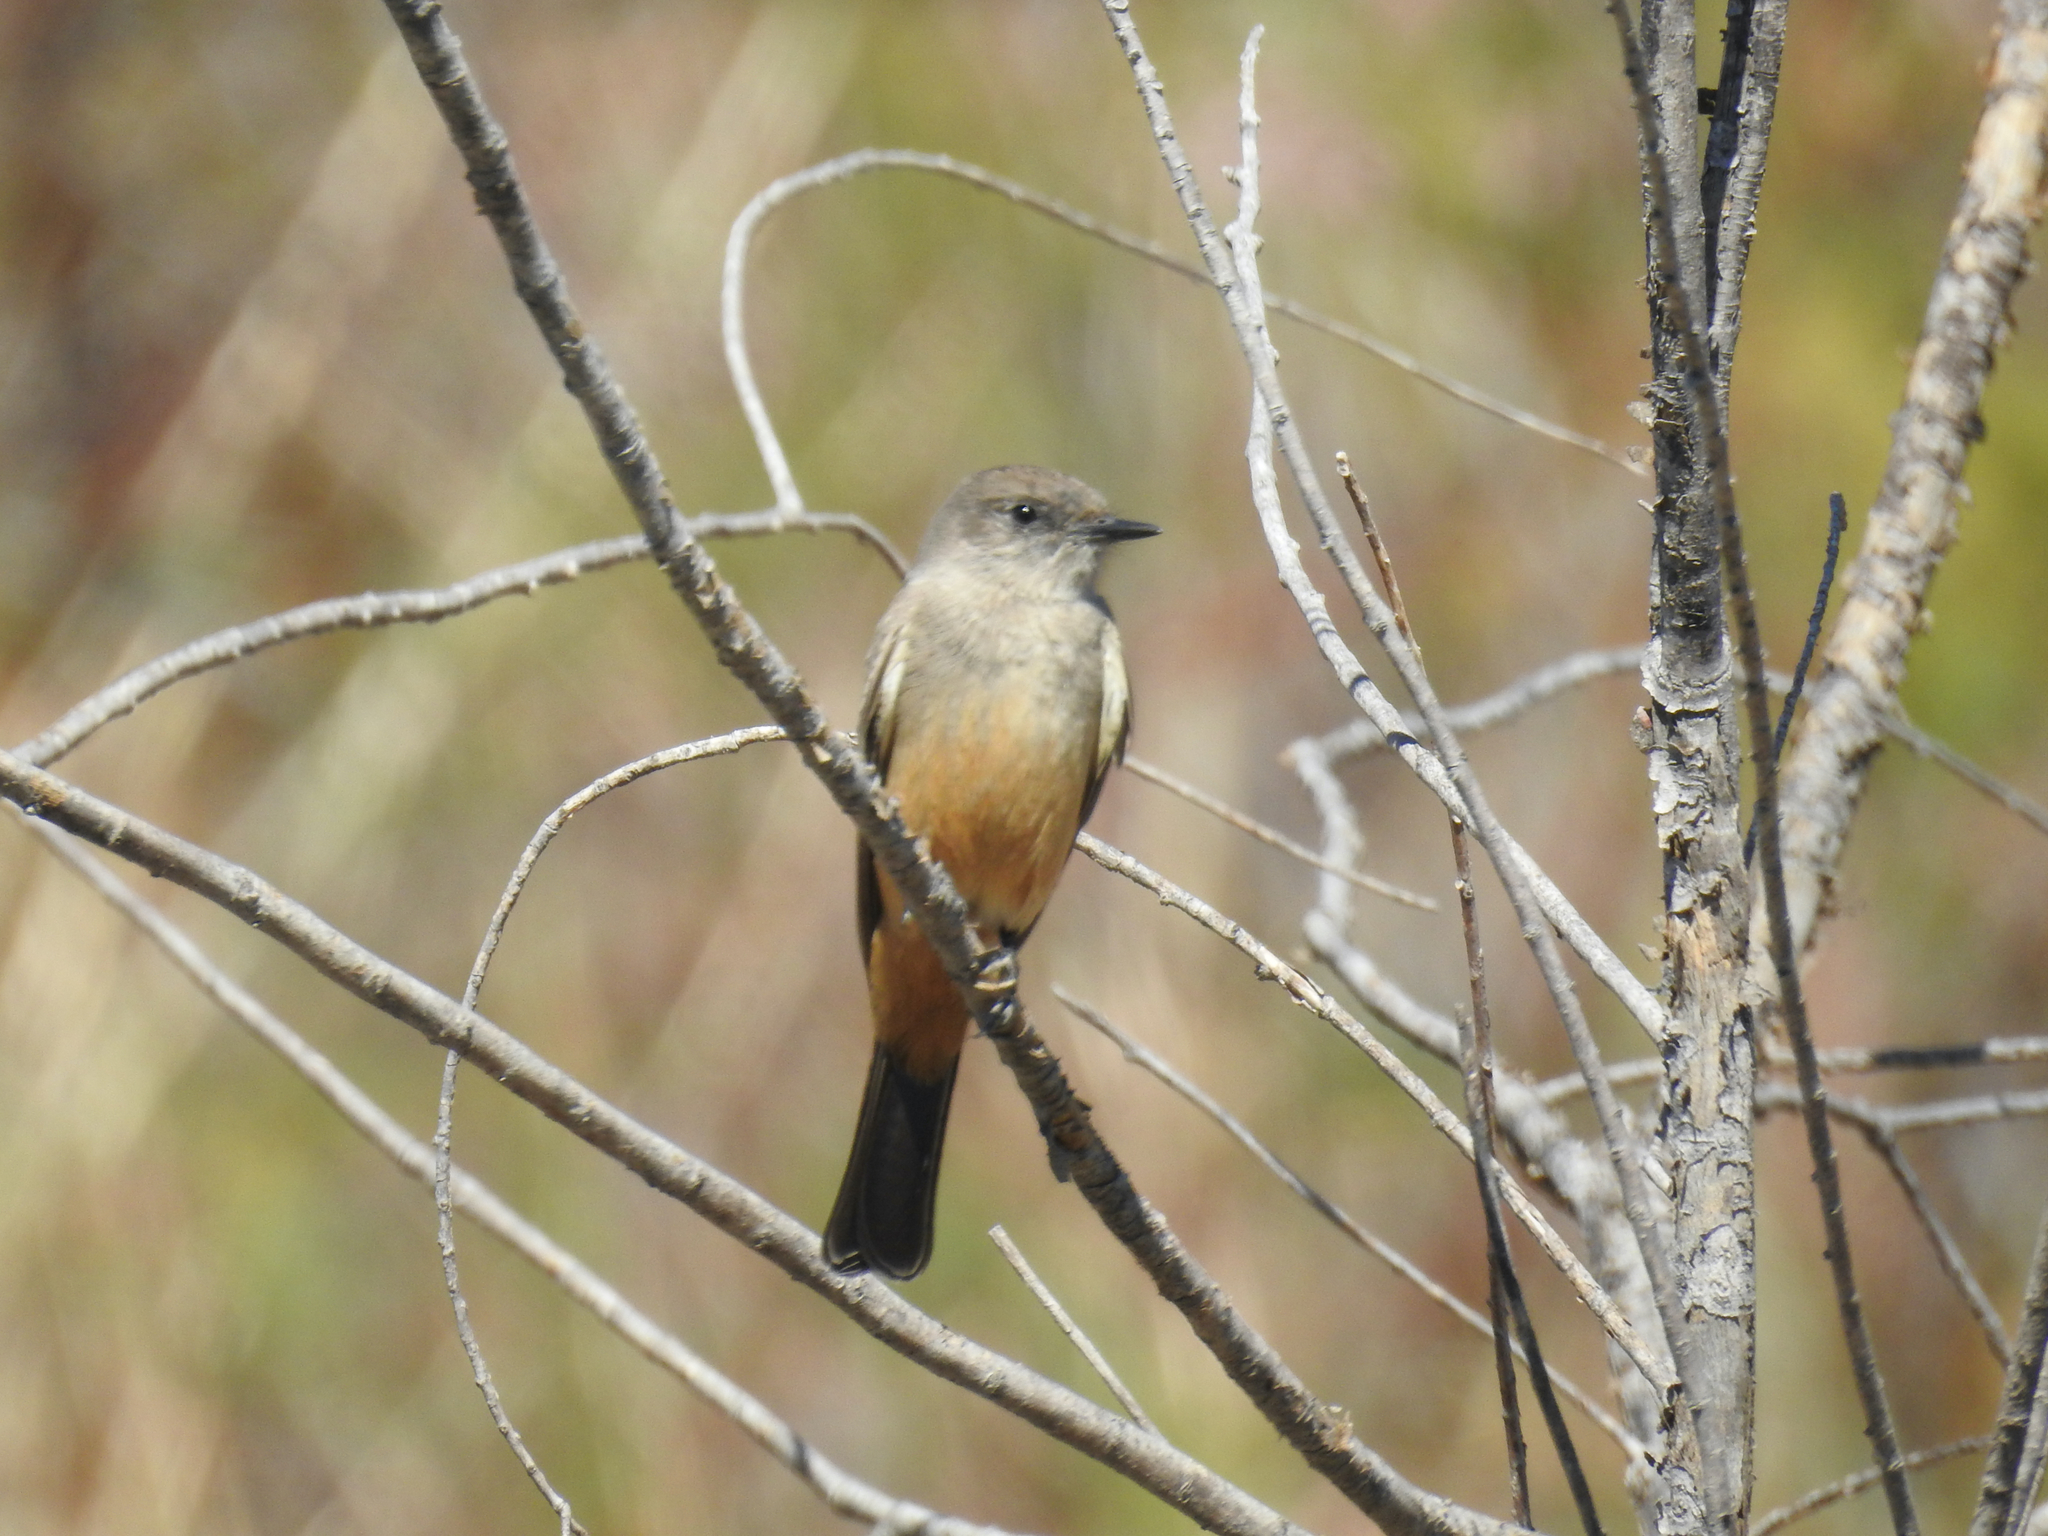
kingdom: Animalia
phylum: Chordata
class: Aves
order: Passeriformes
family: Tyrannidae
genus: Sayornis
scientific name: Sayornis saya
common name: Say's phoebe
